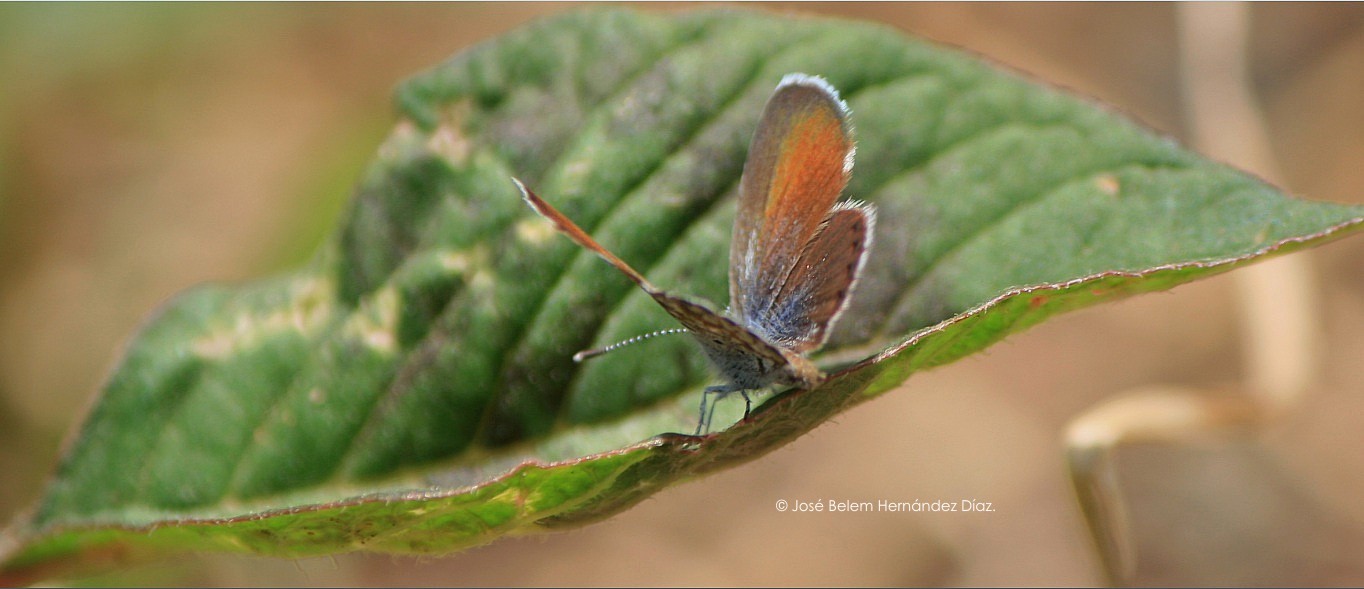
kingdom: Animalia
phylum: Arthropoda
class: Insecta
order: Lepidoptera
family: Lycaenidae
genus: Brephidium
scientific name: Brephidium exilis
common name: Pygmy blue
